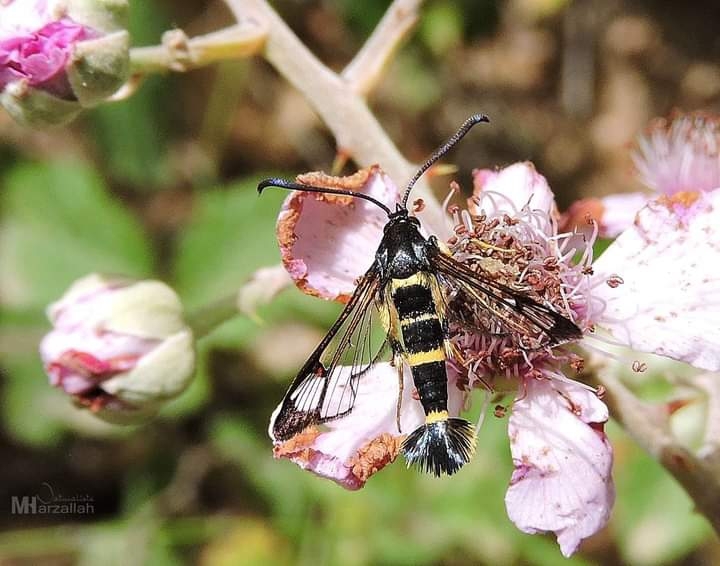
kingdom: Animalia
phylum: Arthropoda
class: Insecta
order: Lepidoptera
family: Sesiidae
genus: Synanthedon
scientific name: Synanthedon codeti
